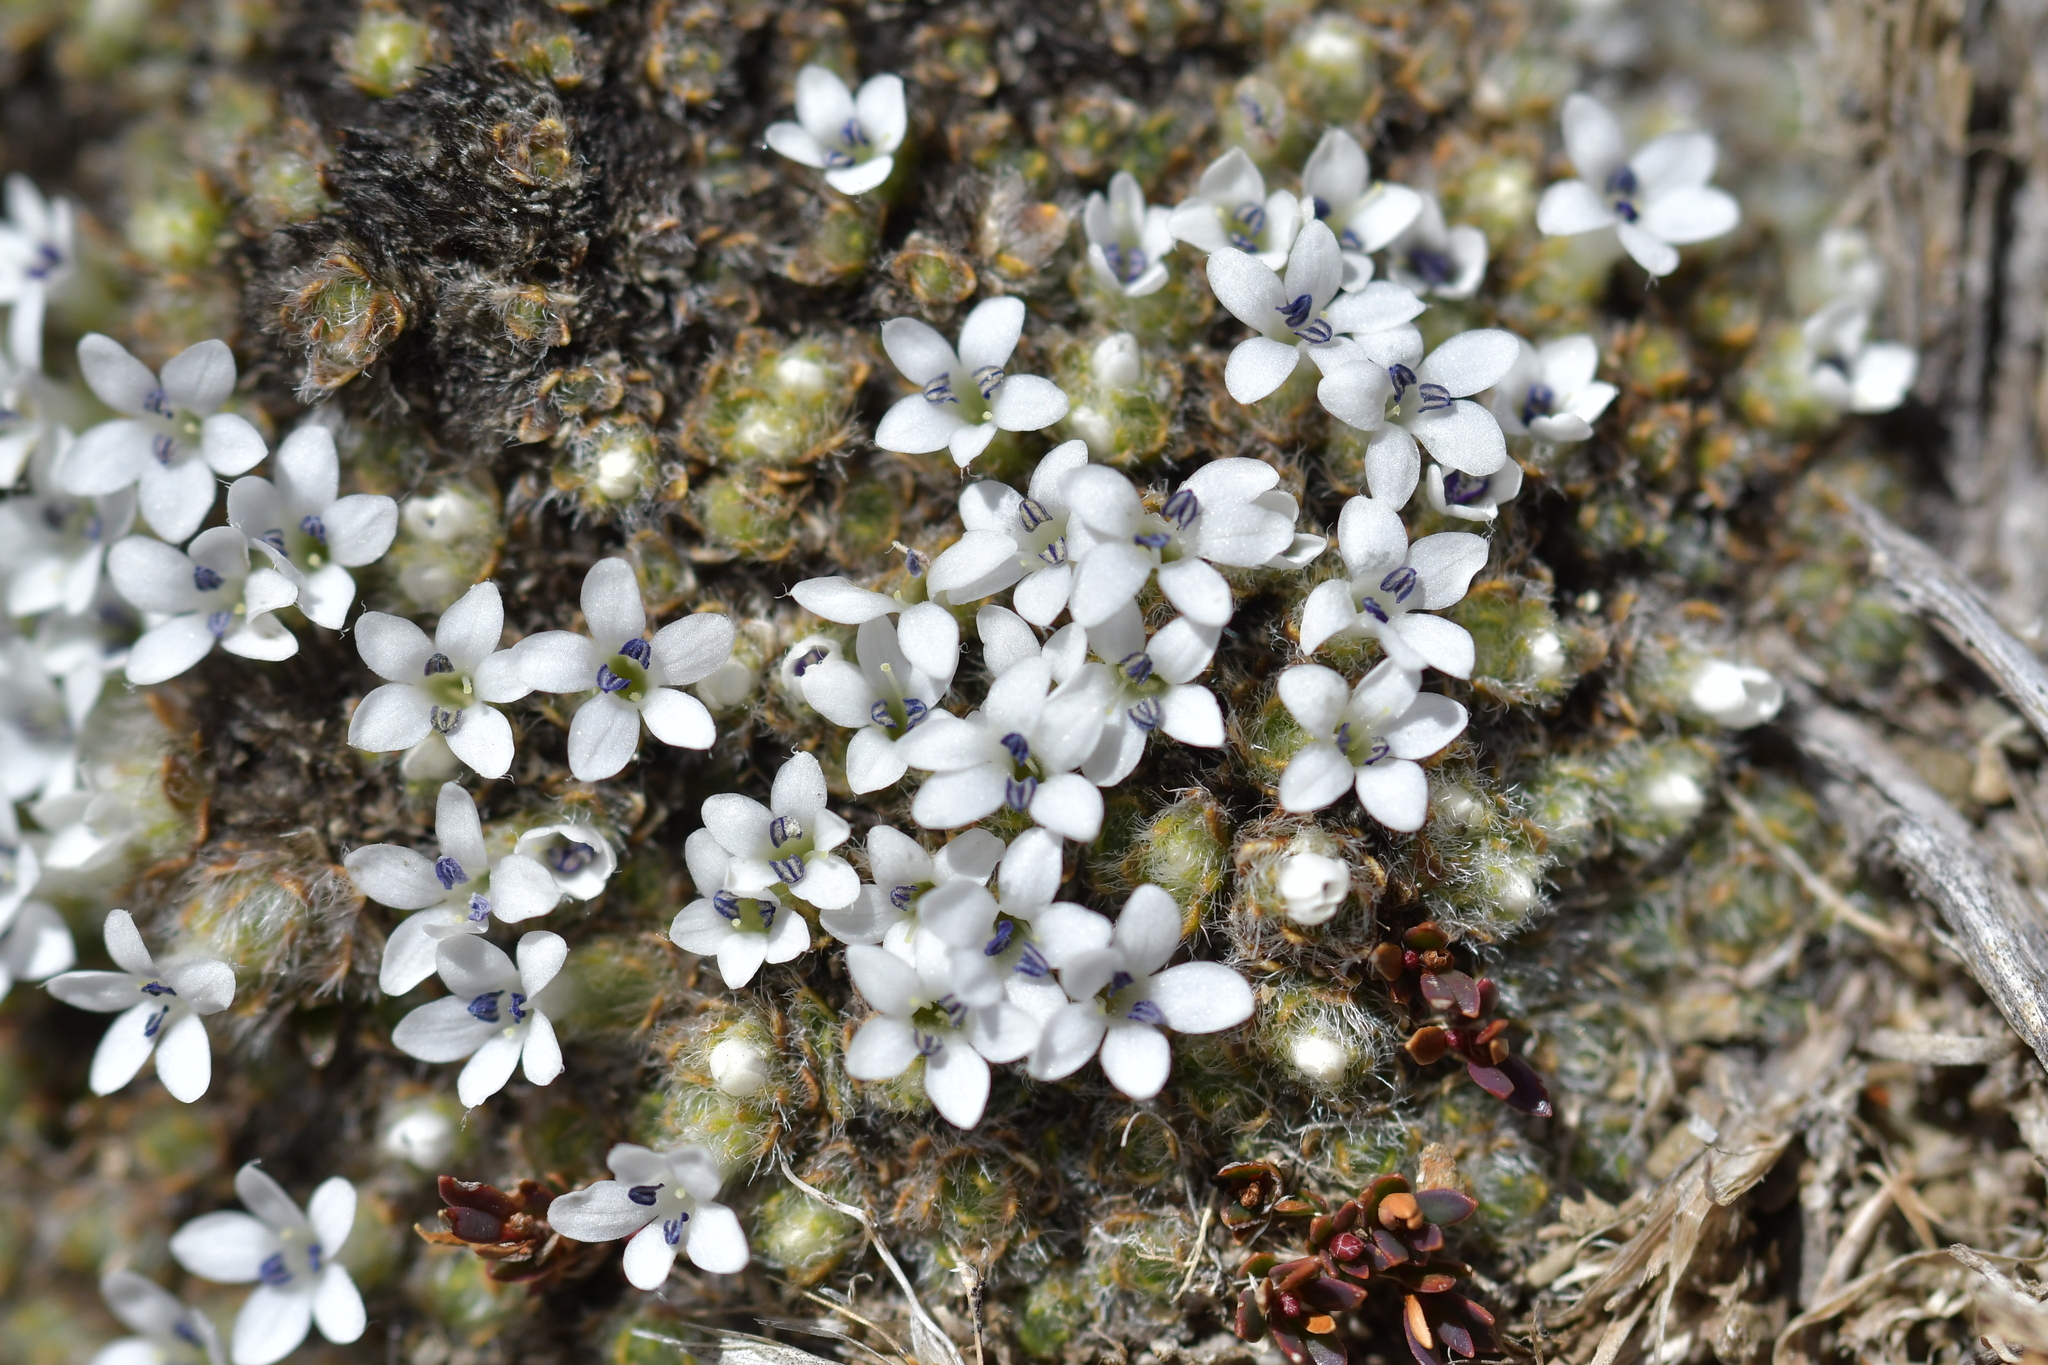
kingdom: Plantae
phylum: Tracheophyta
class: Magnoliopsida
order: Lamiales
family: Plantaginaceae
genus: Veronica
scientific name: Veronica pulvinaris
